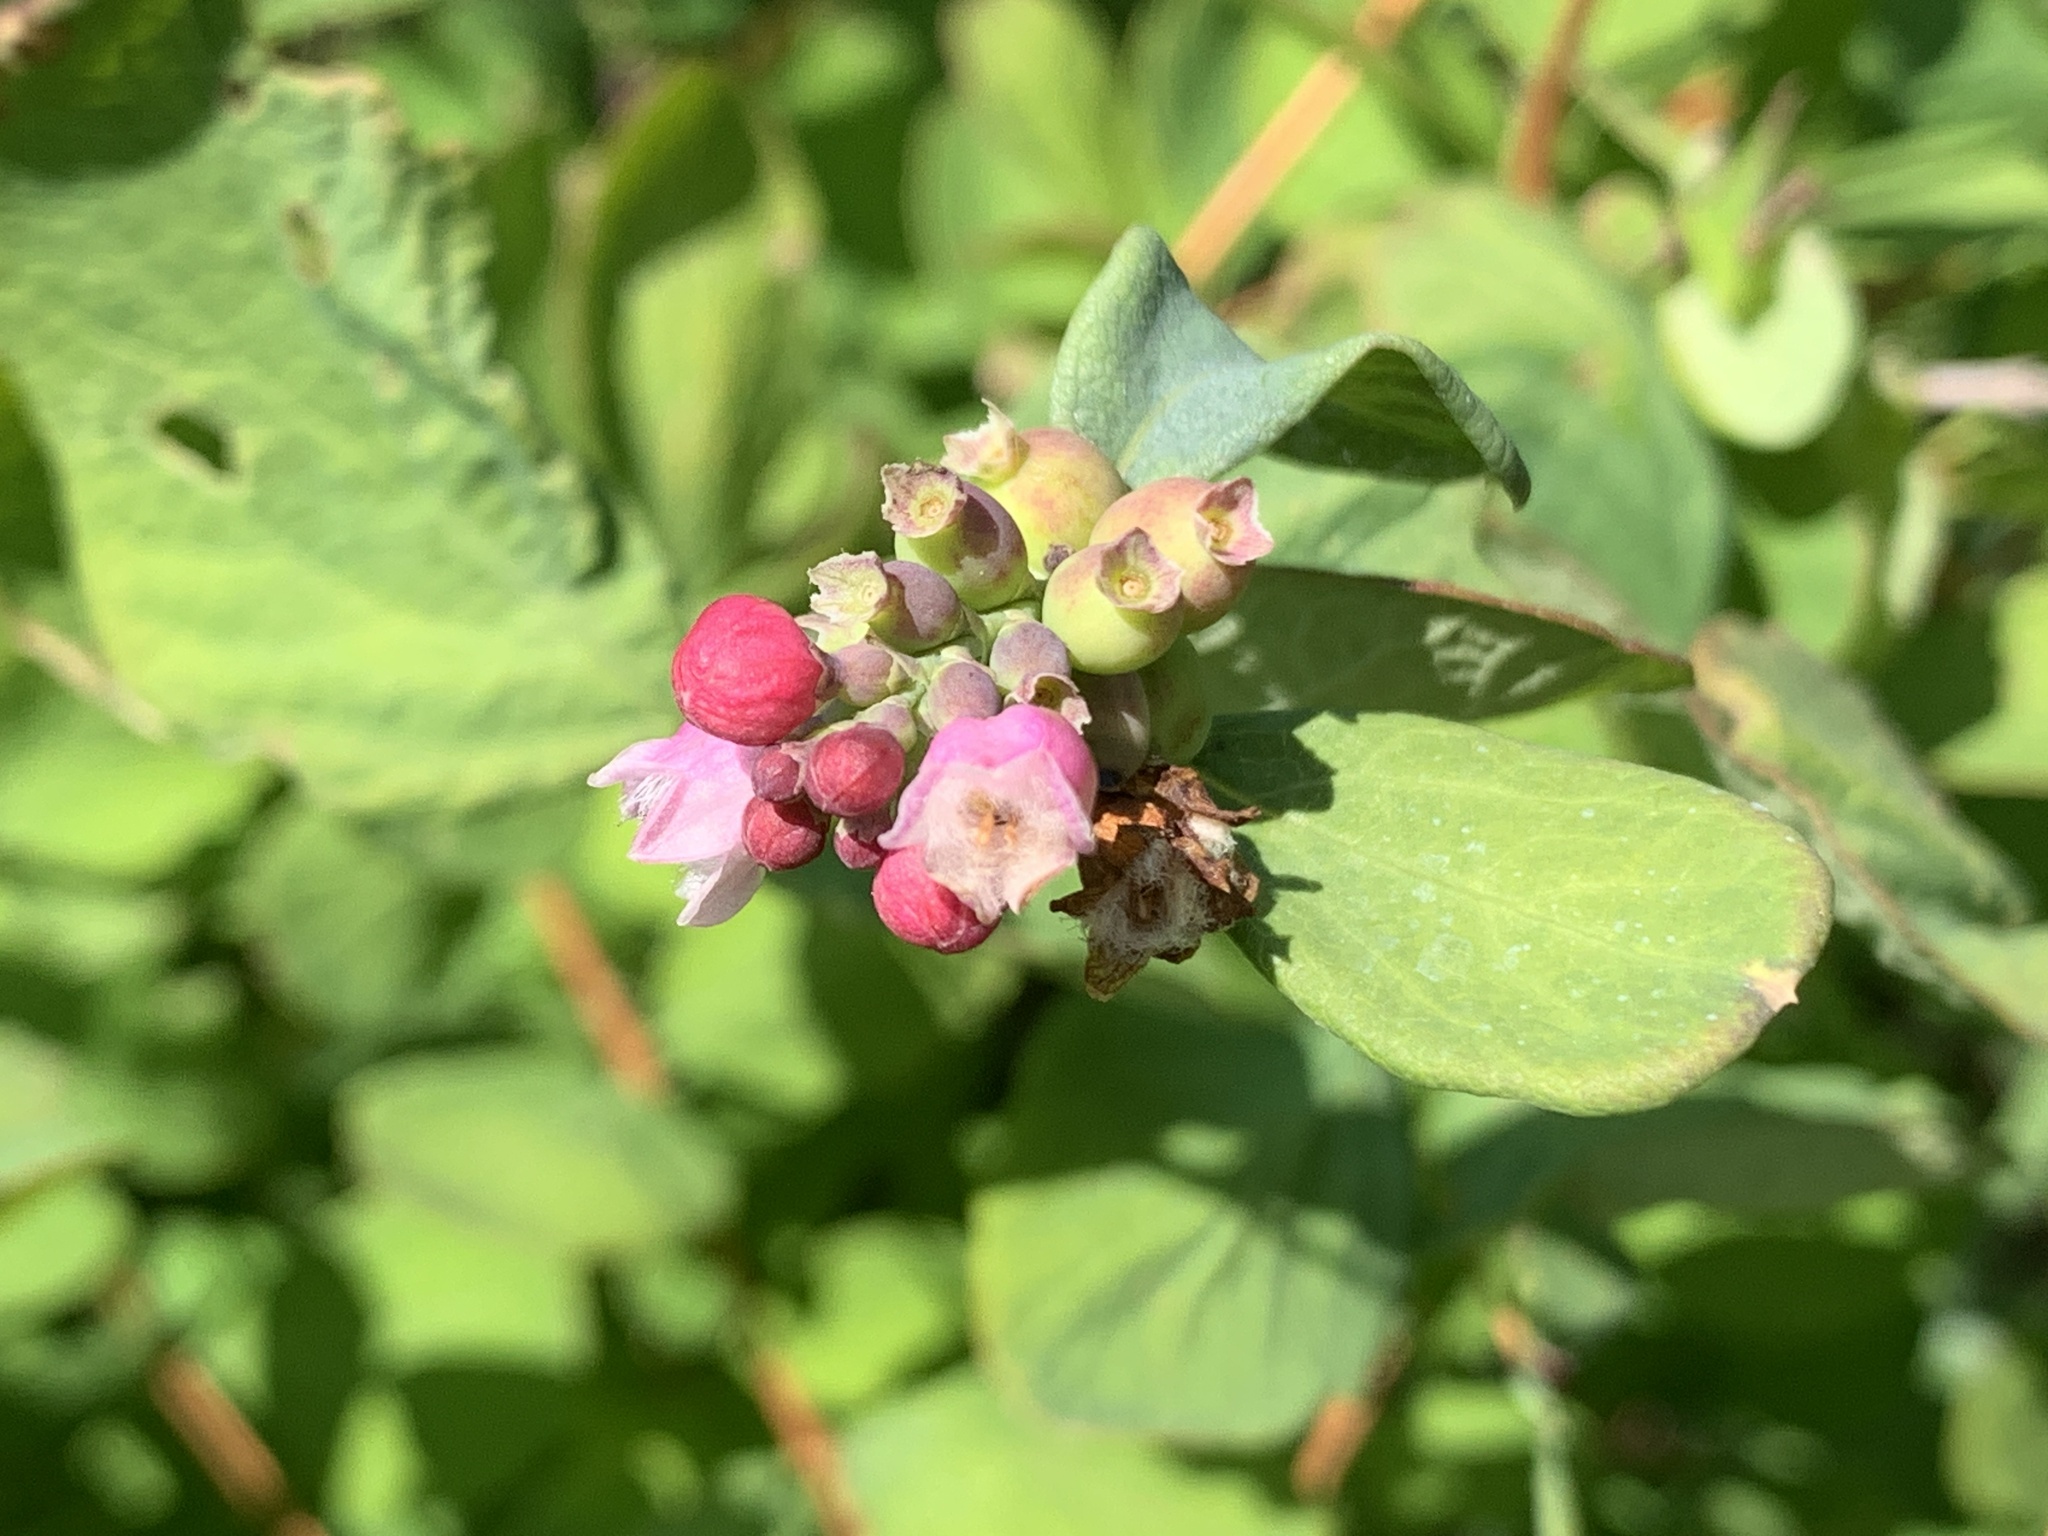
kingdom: Plantae
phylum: Tracheophyta
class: Magnoliopsida
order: Dipsacales
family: Caprifoliaceae
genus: Symphoricarpos
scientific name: Symphoricarpos albus
